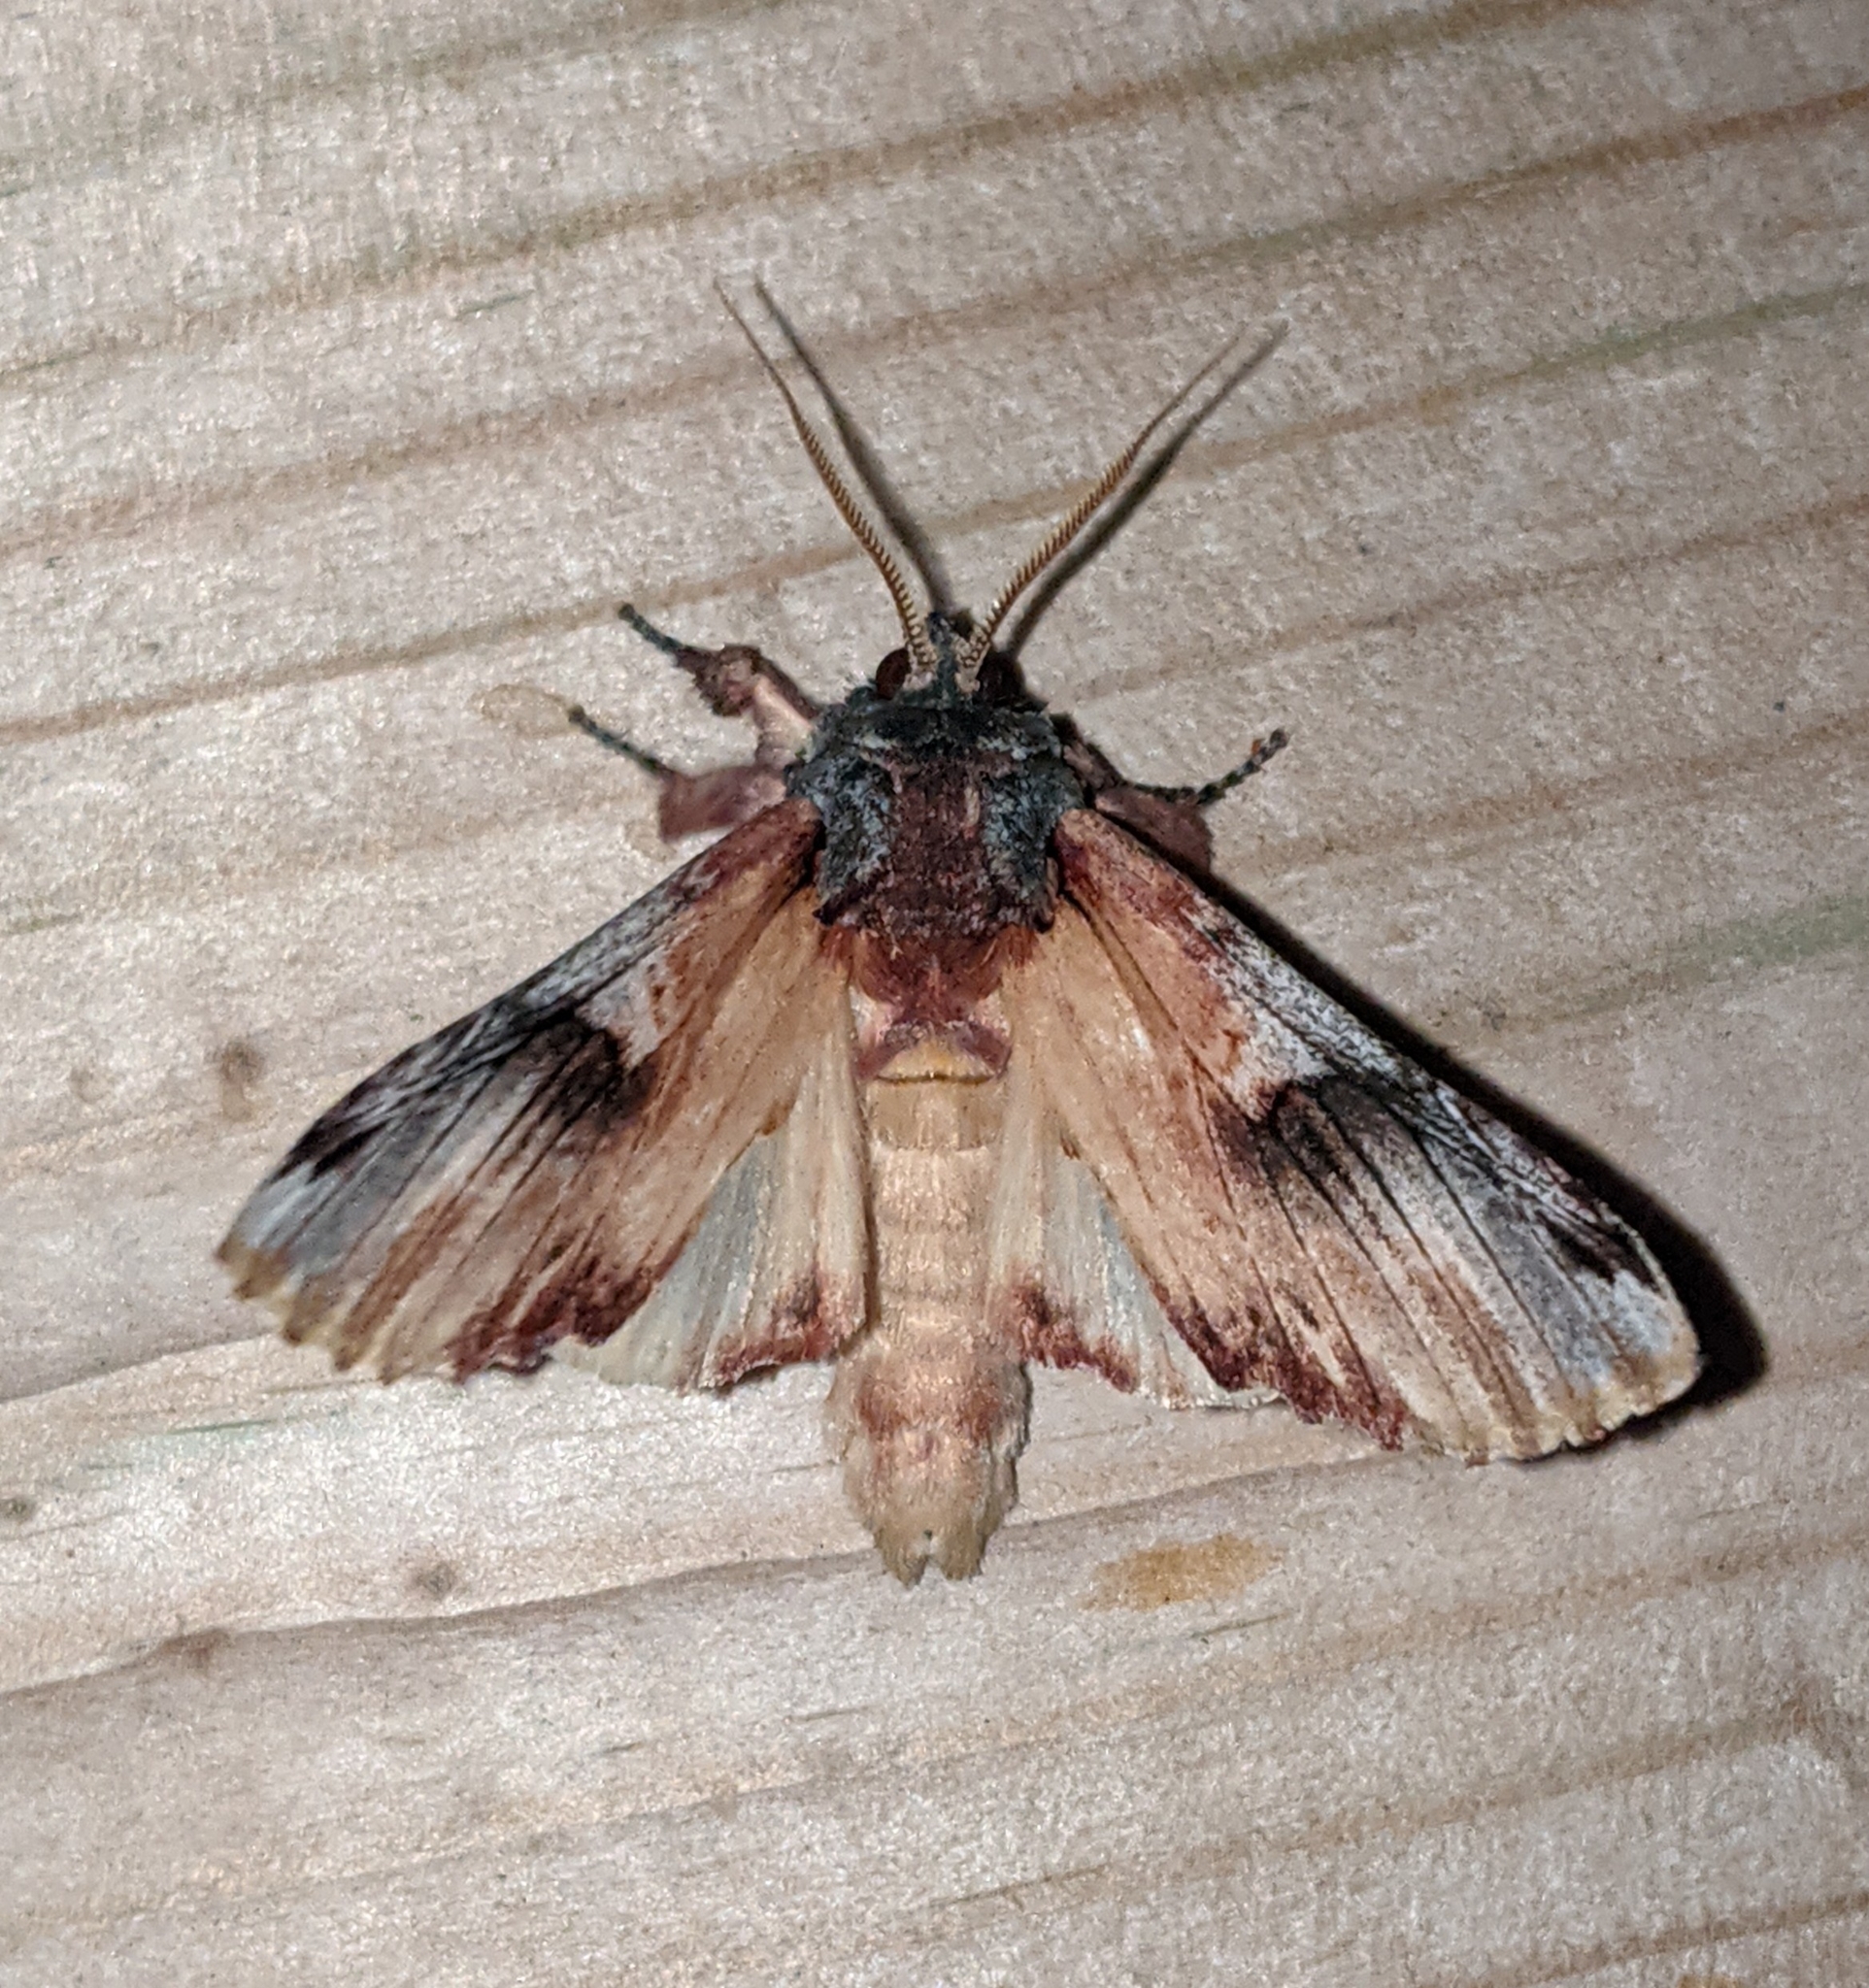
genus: Ianassa
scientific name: Ianassa
